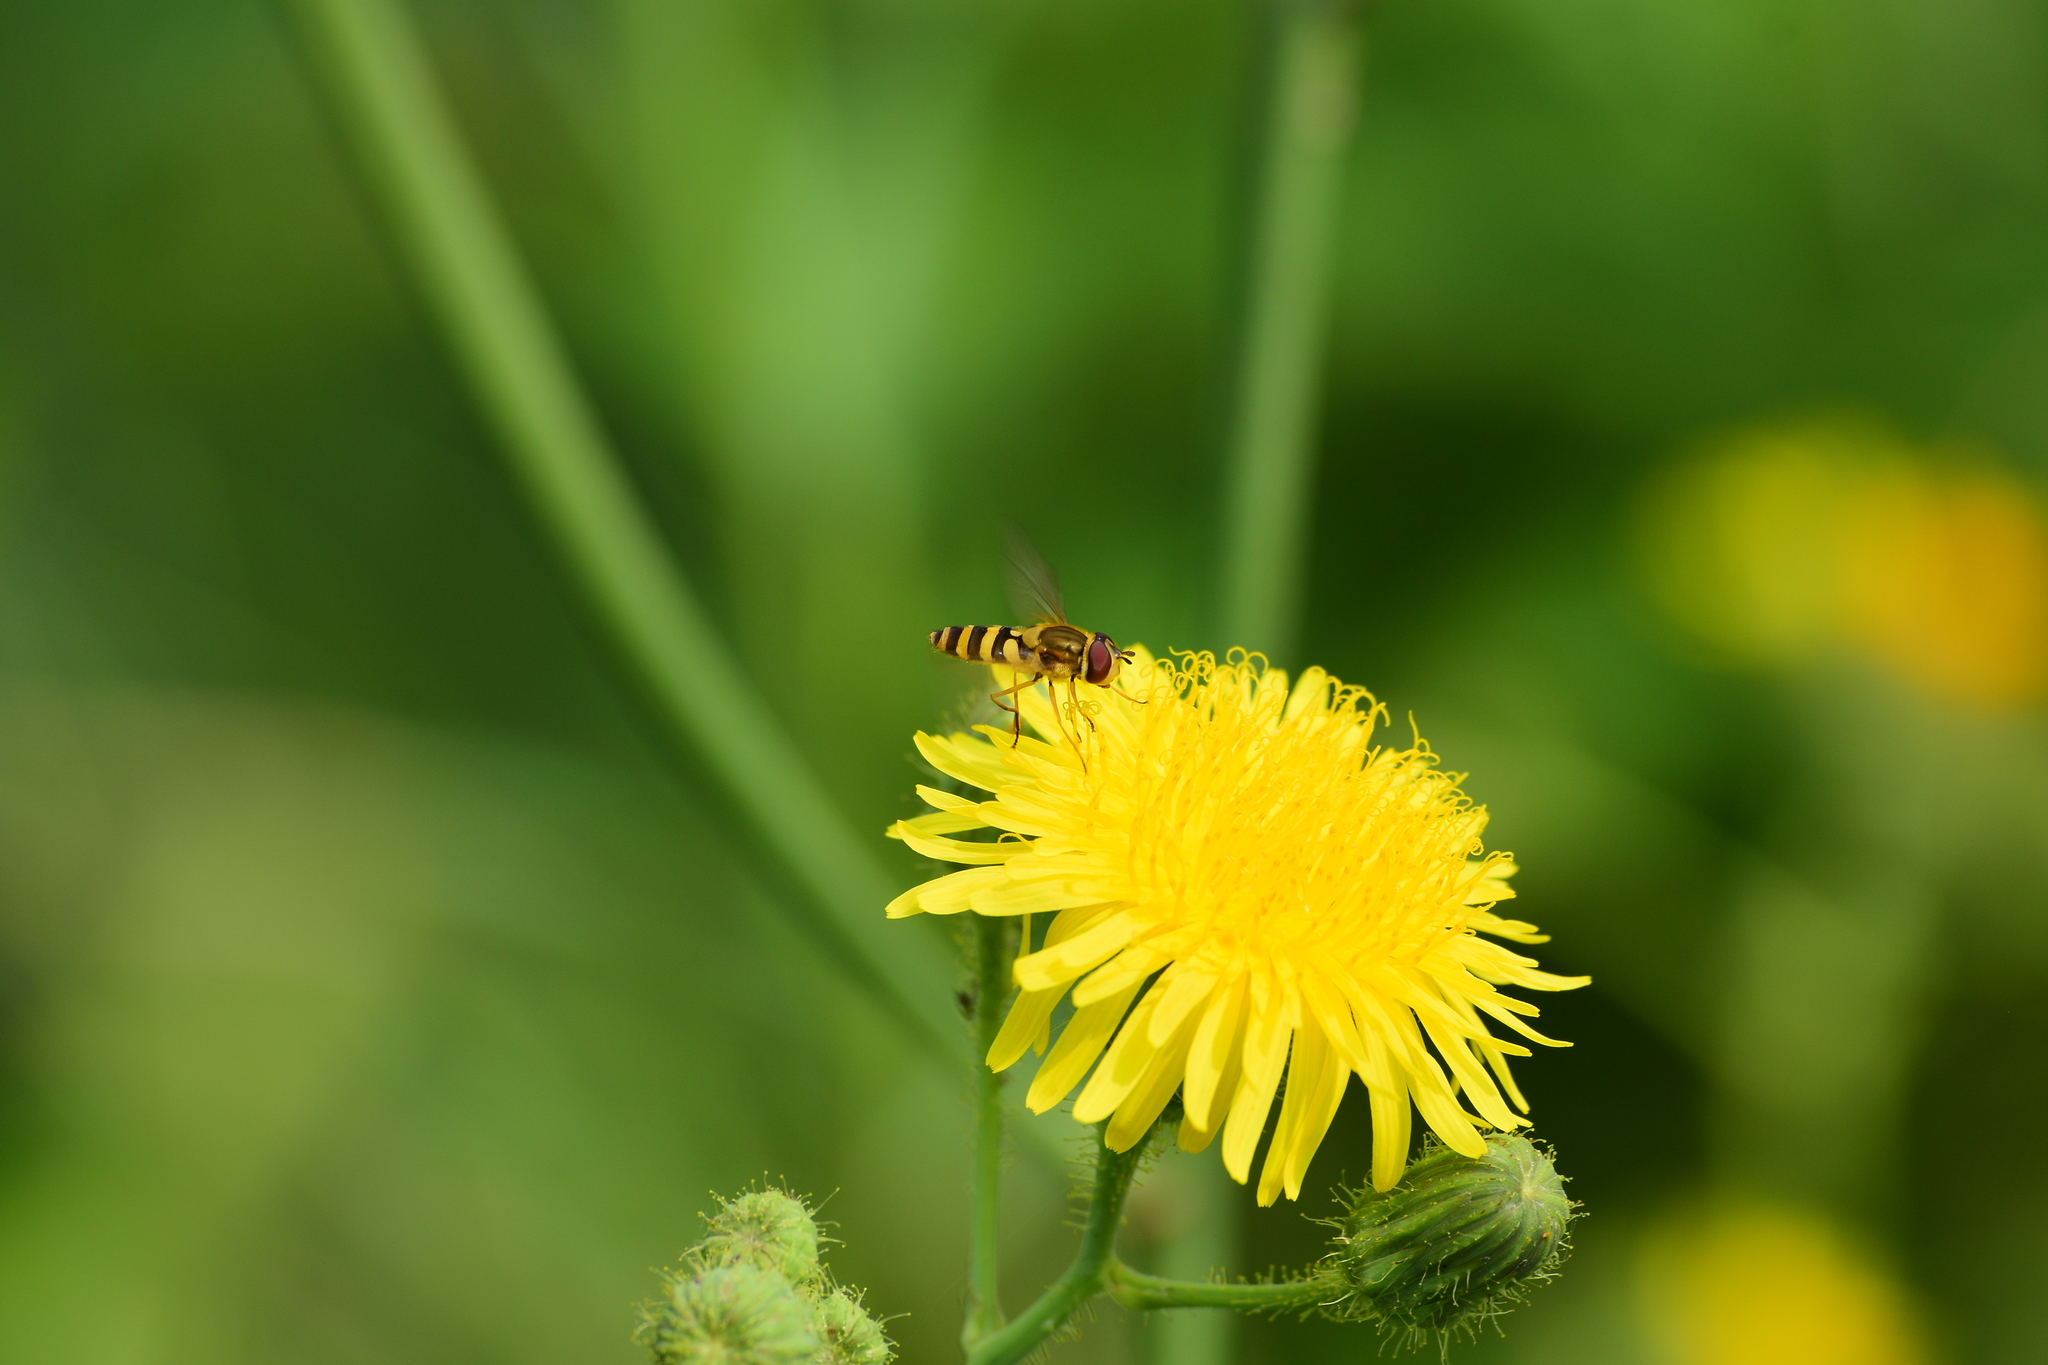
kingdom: Animalia
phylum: Arthropoda
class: Insecta
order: Diptera
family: Syrphidae
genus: Syrphus
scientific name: Syrphus ribesii
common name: Common flower fly
